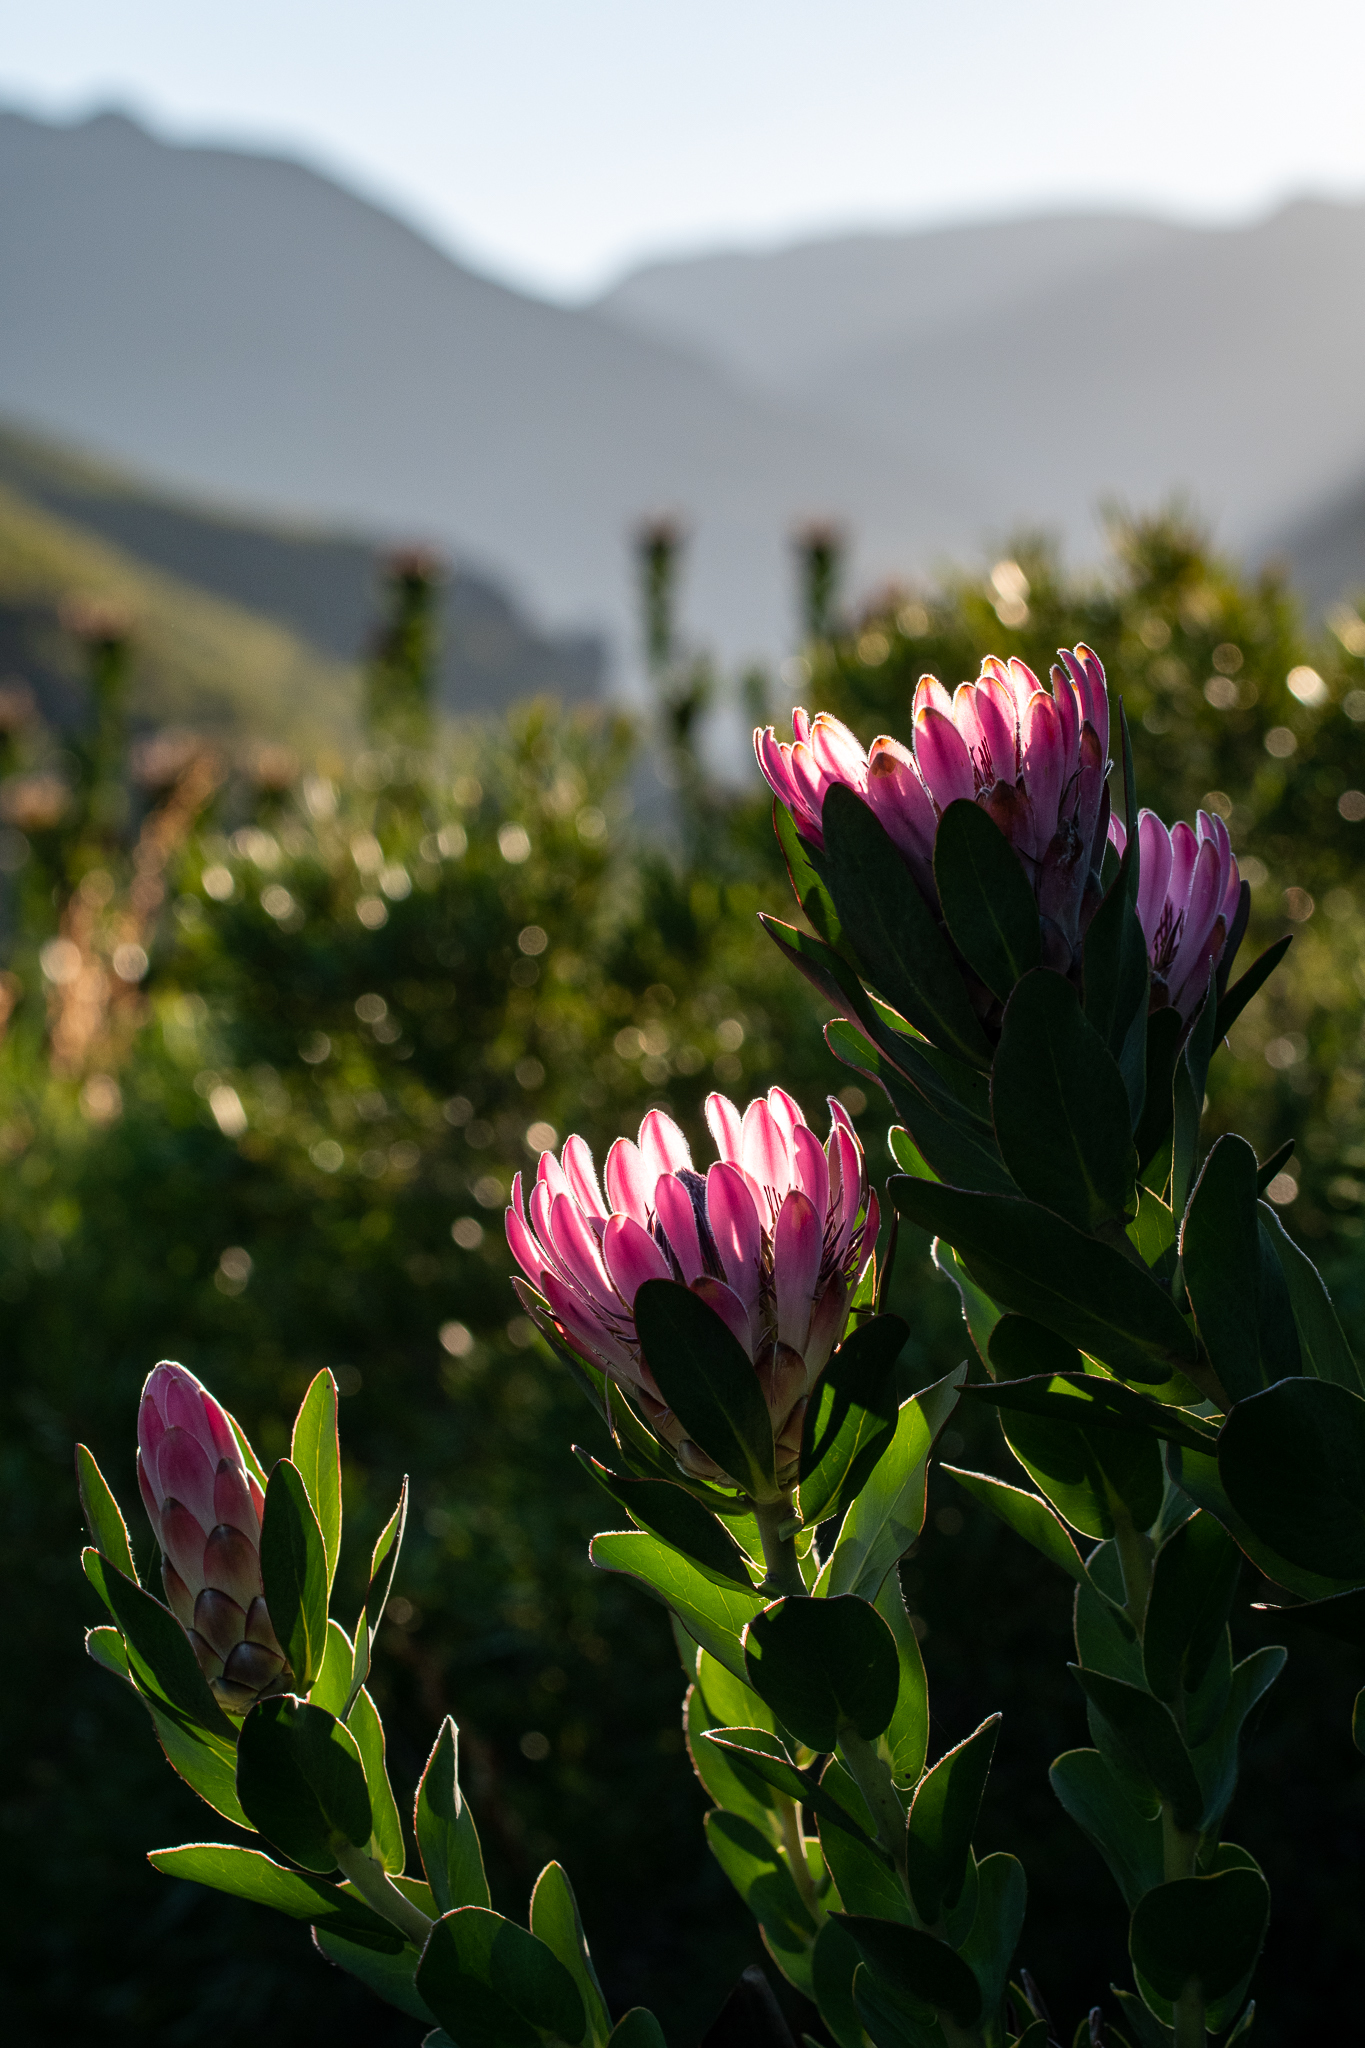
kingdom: Plantae
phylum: Tracheophyta
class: Magnoliopsida
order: Proteales
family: Proteaceae
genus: Protea
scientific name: Protea compacta
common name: Bot river protea
